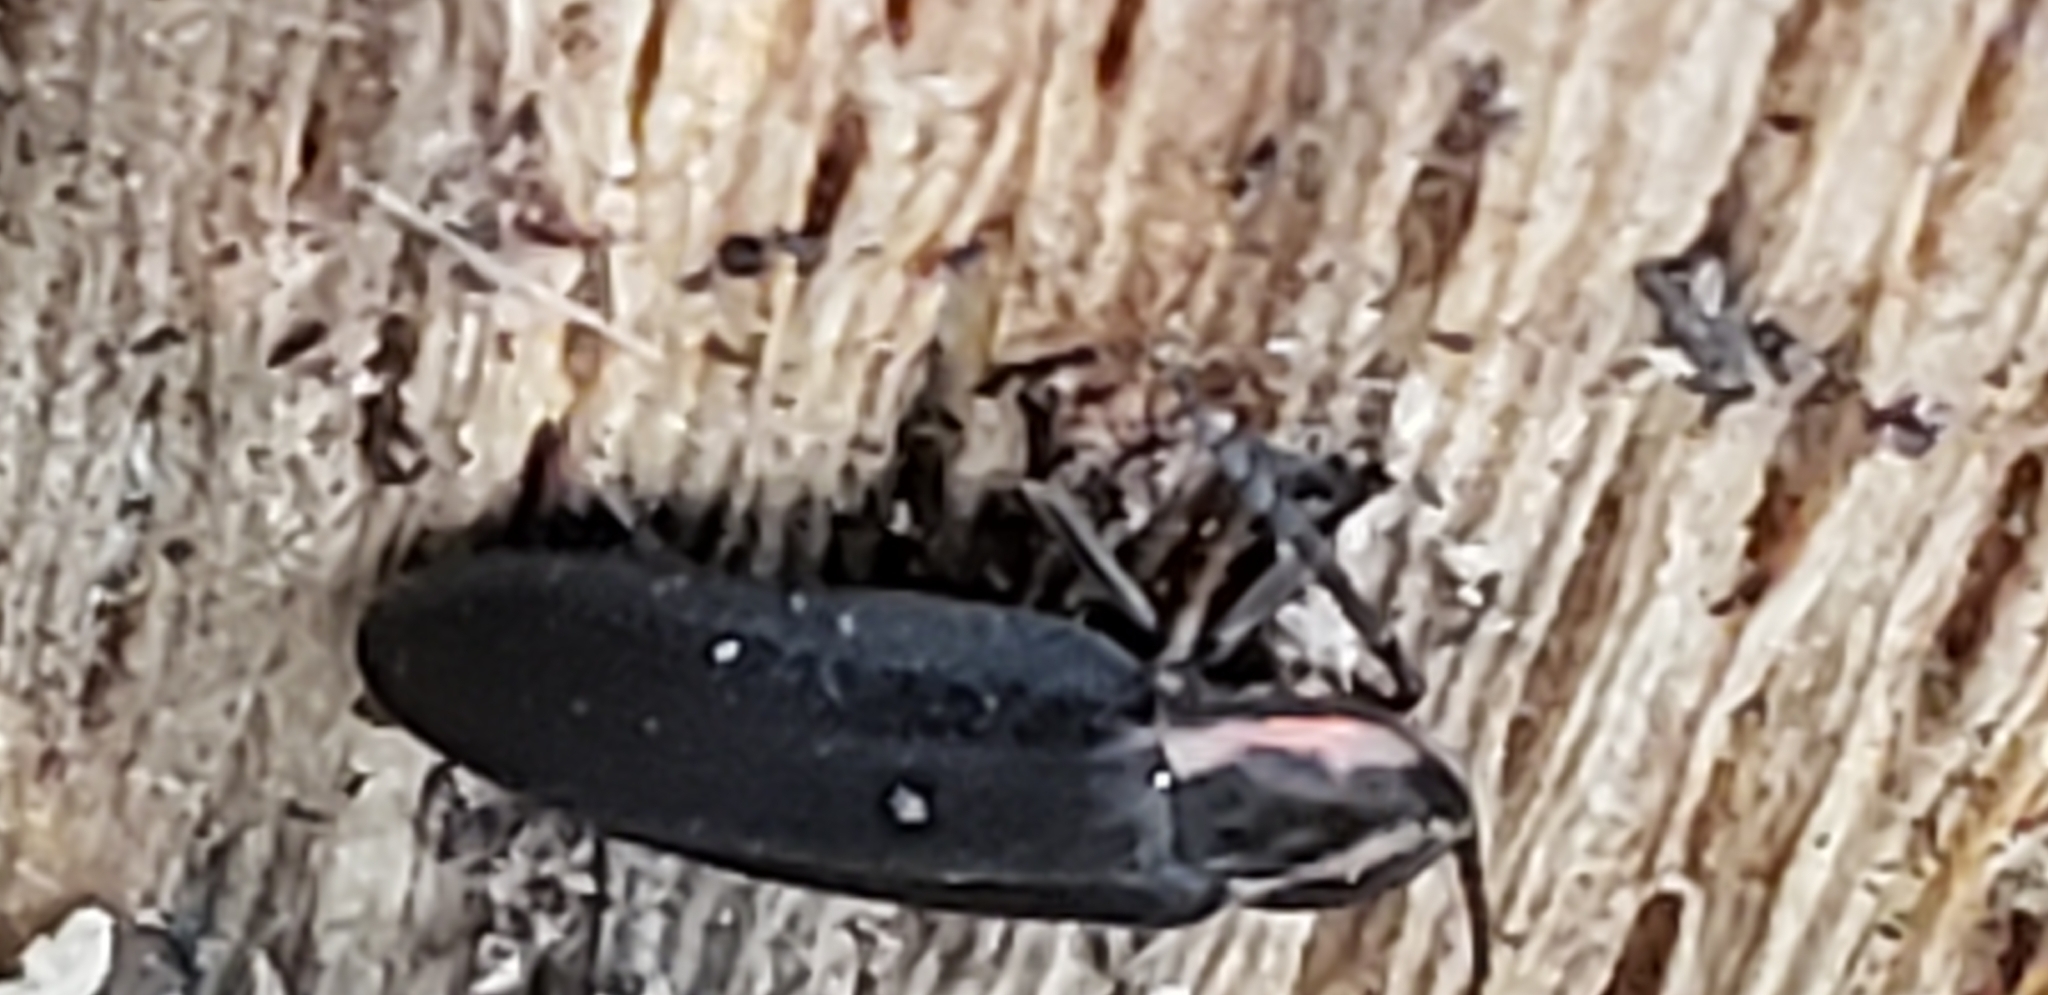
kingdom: Animalia
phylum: Arthropoda
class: Insecta
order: Coleoptera
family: Lampyridae
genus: Photinus
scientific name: Photinus corrusca
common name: Winter firefly
